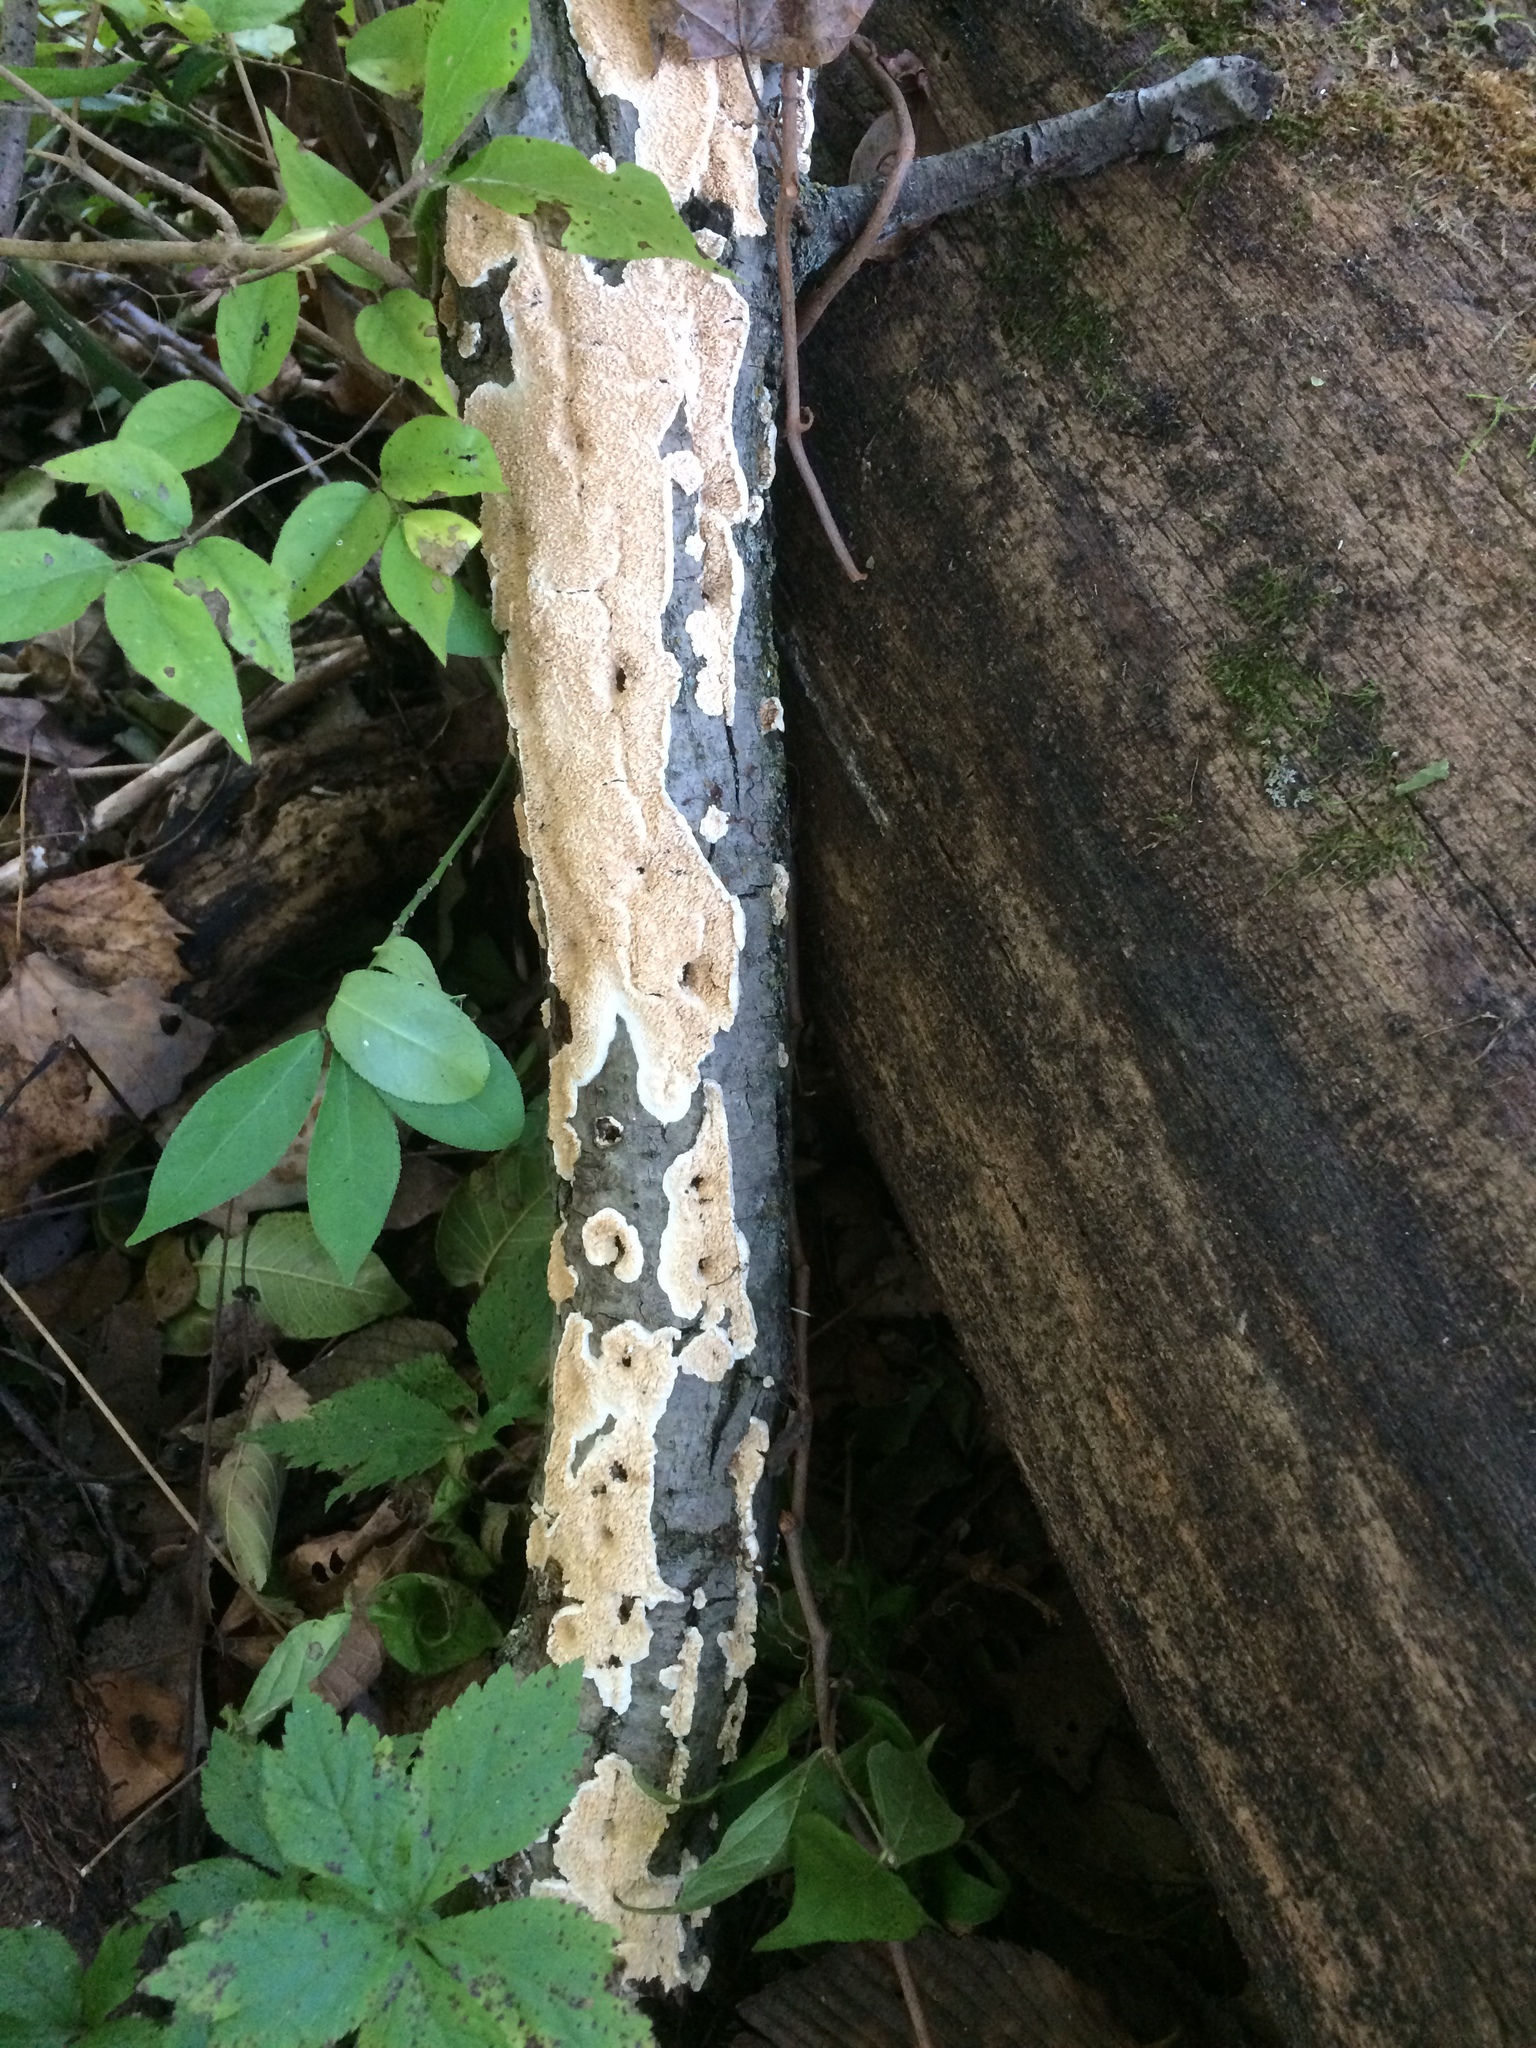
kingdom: Fungi
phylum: Basidiomycota
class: Agaricomycetes
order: Polyporales
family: Irpicaceae
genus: Irpex
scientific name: Irpex lacteus
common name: Milk-white toothed polypore
